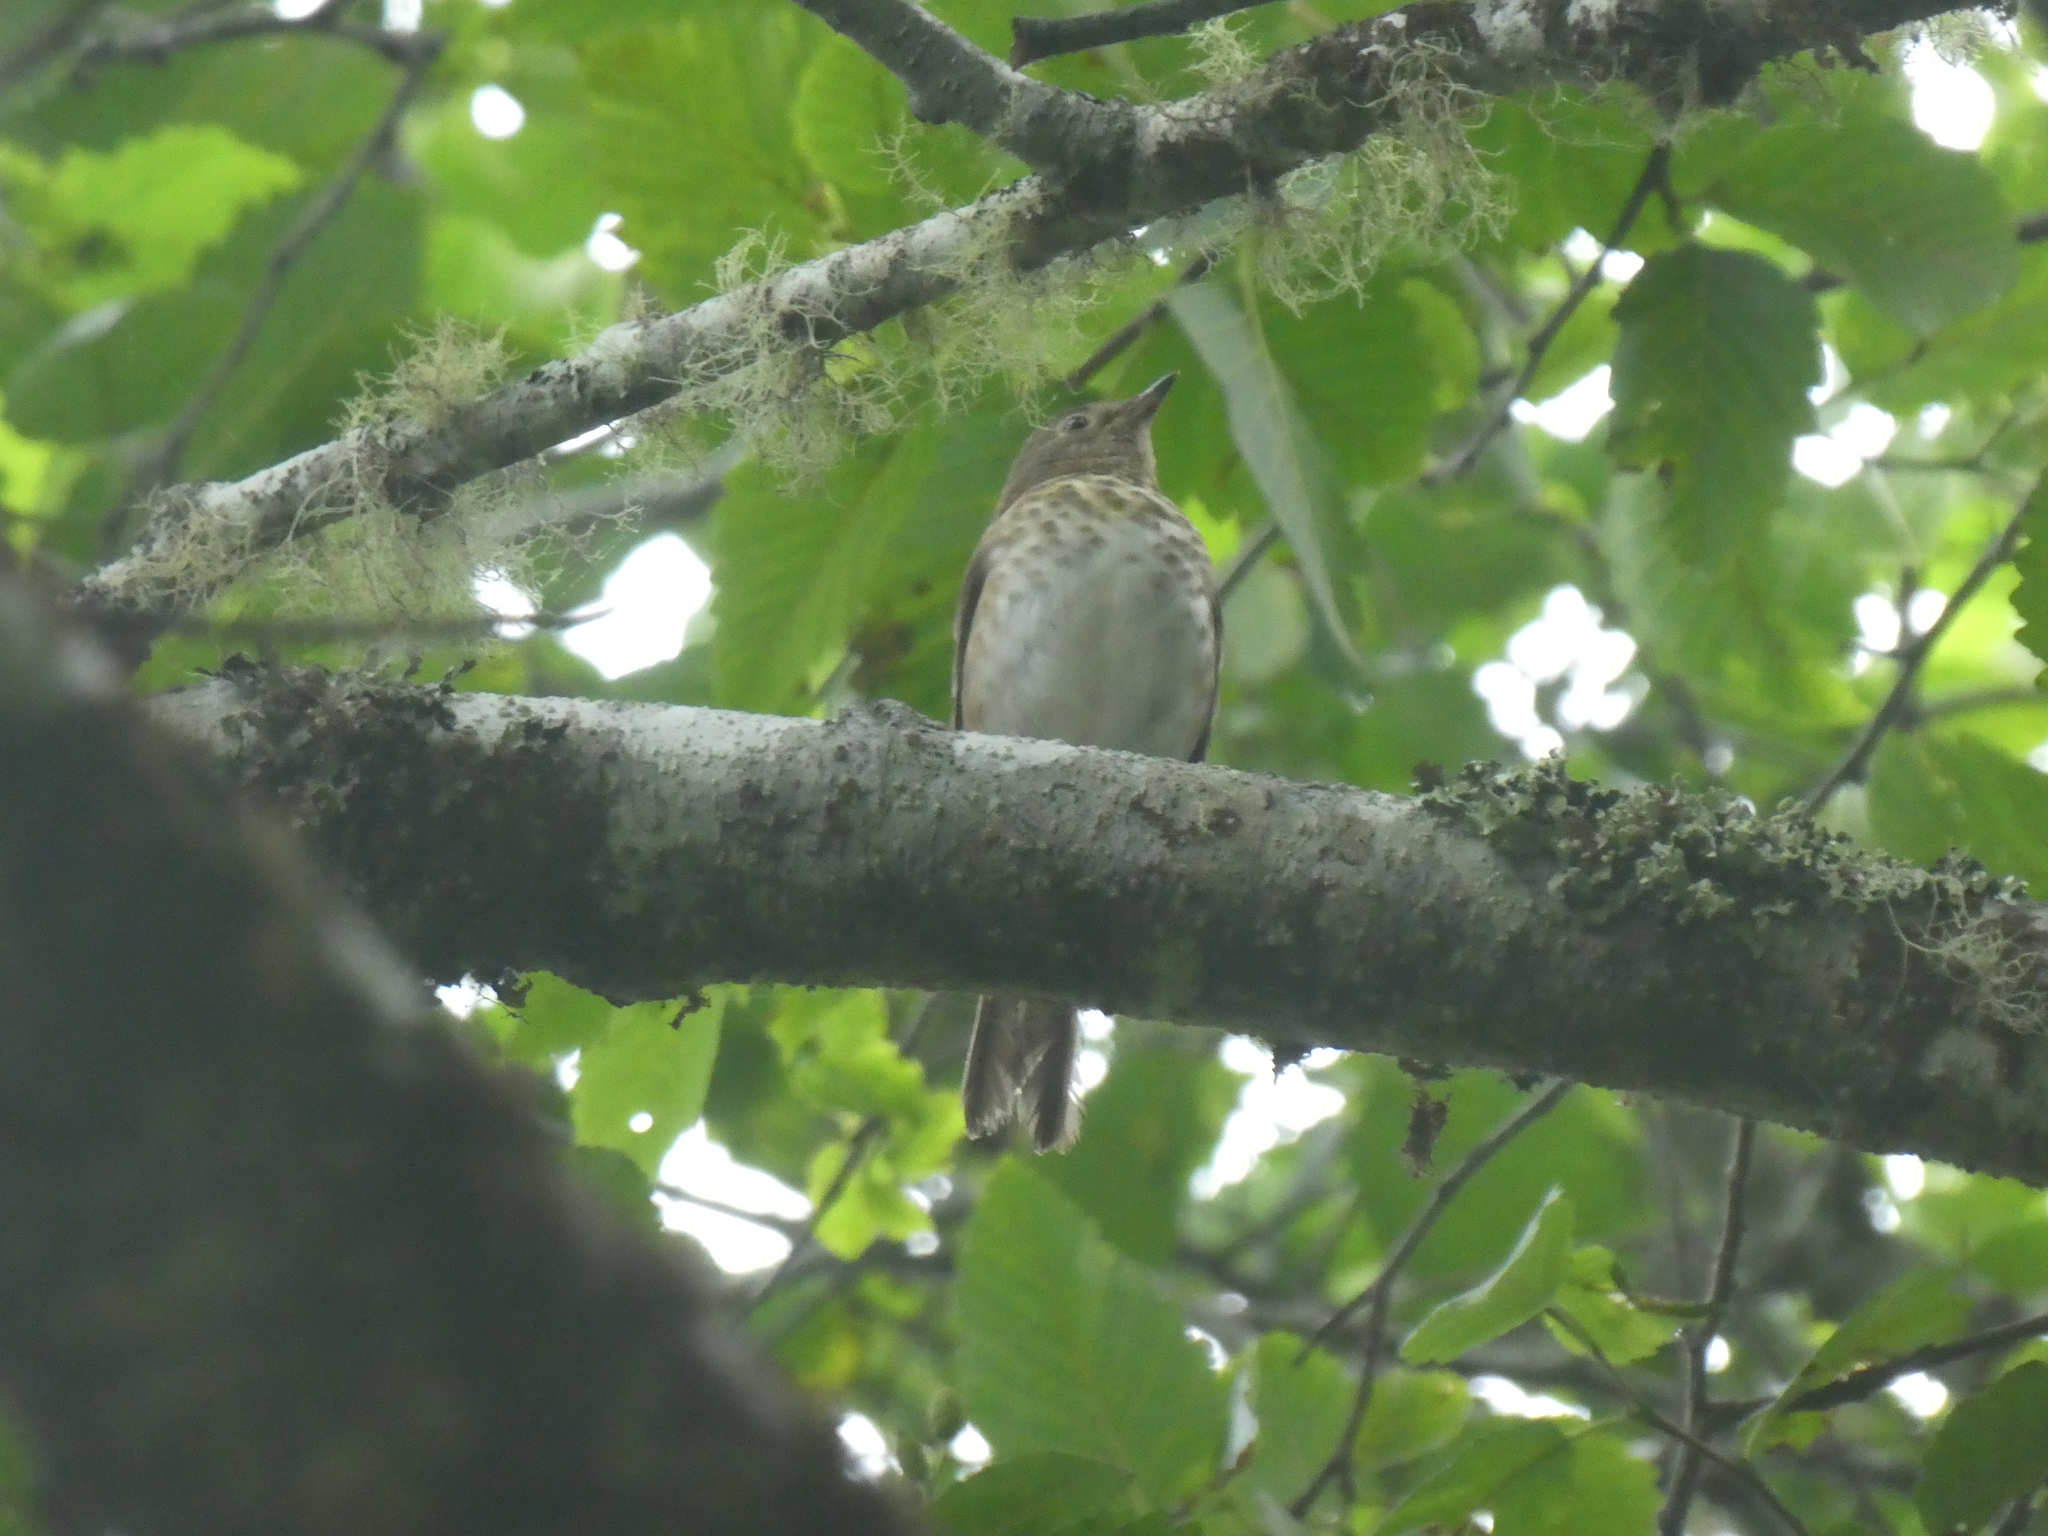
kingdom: Animalia
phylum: Chordata
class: Aves
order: Passeriformes
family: Turdidae
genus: Catharus
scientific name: Catharus ustulatus
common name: Swainson's thrush
